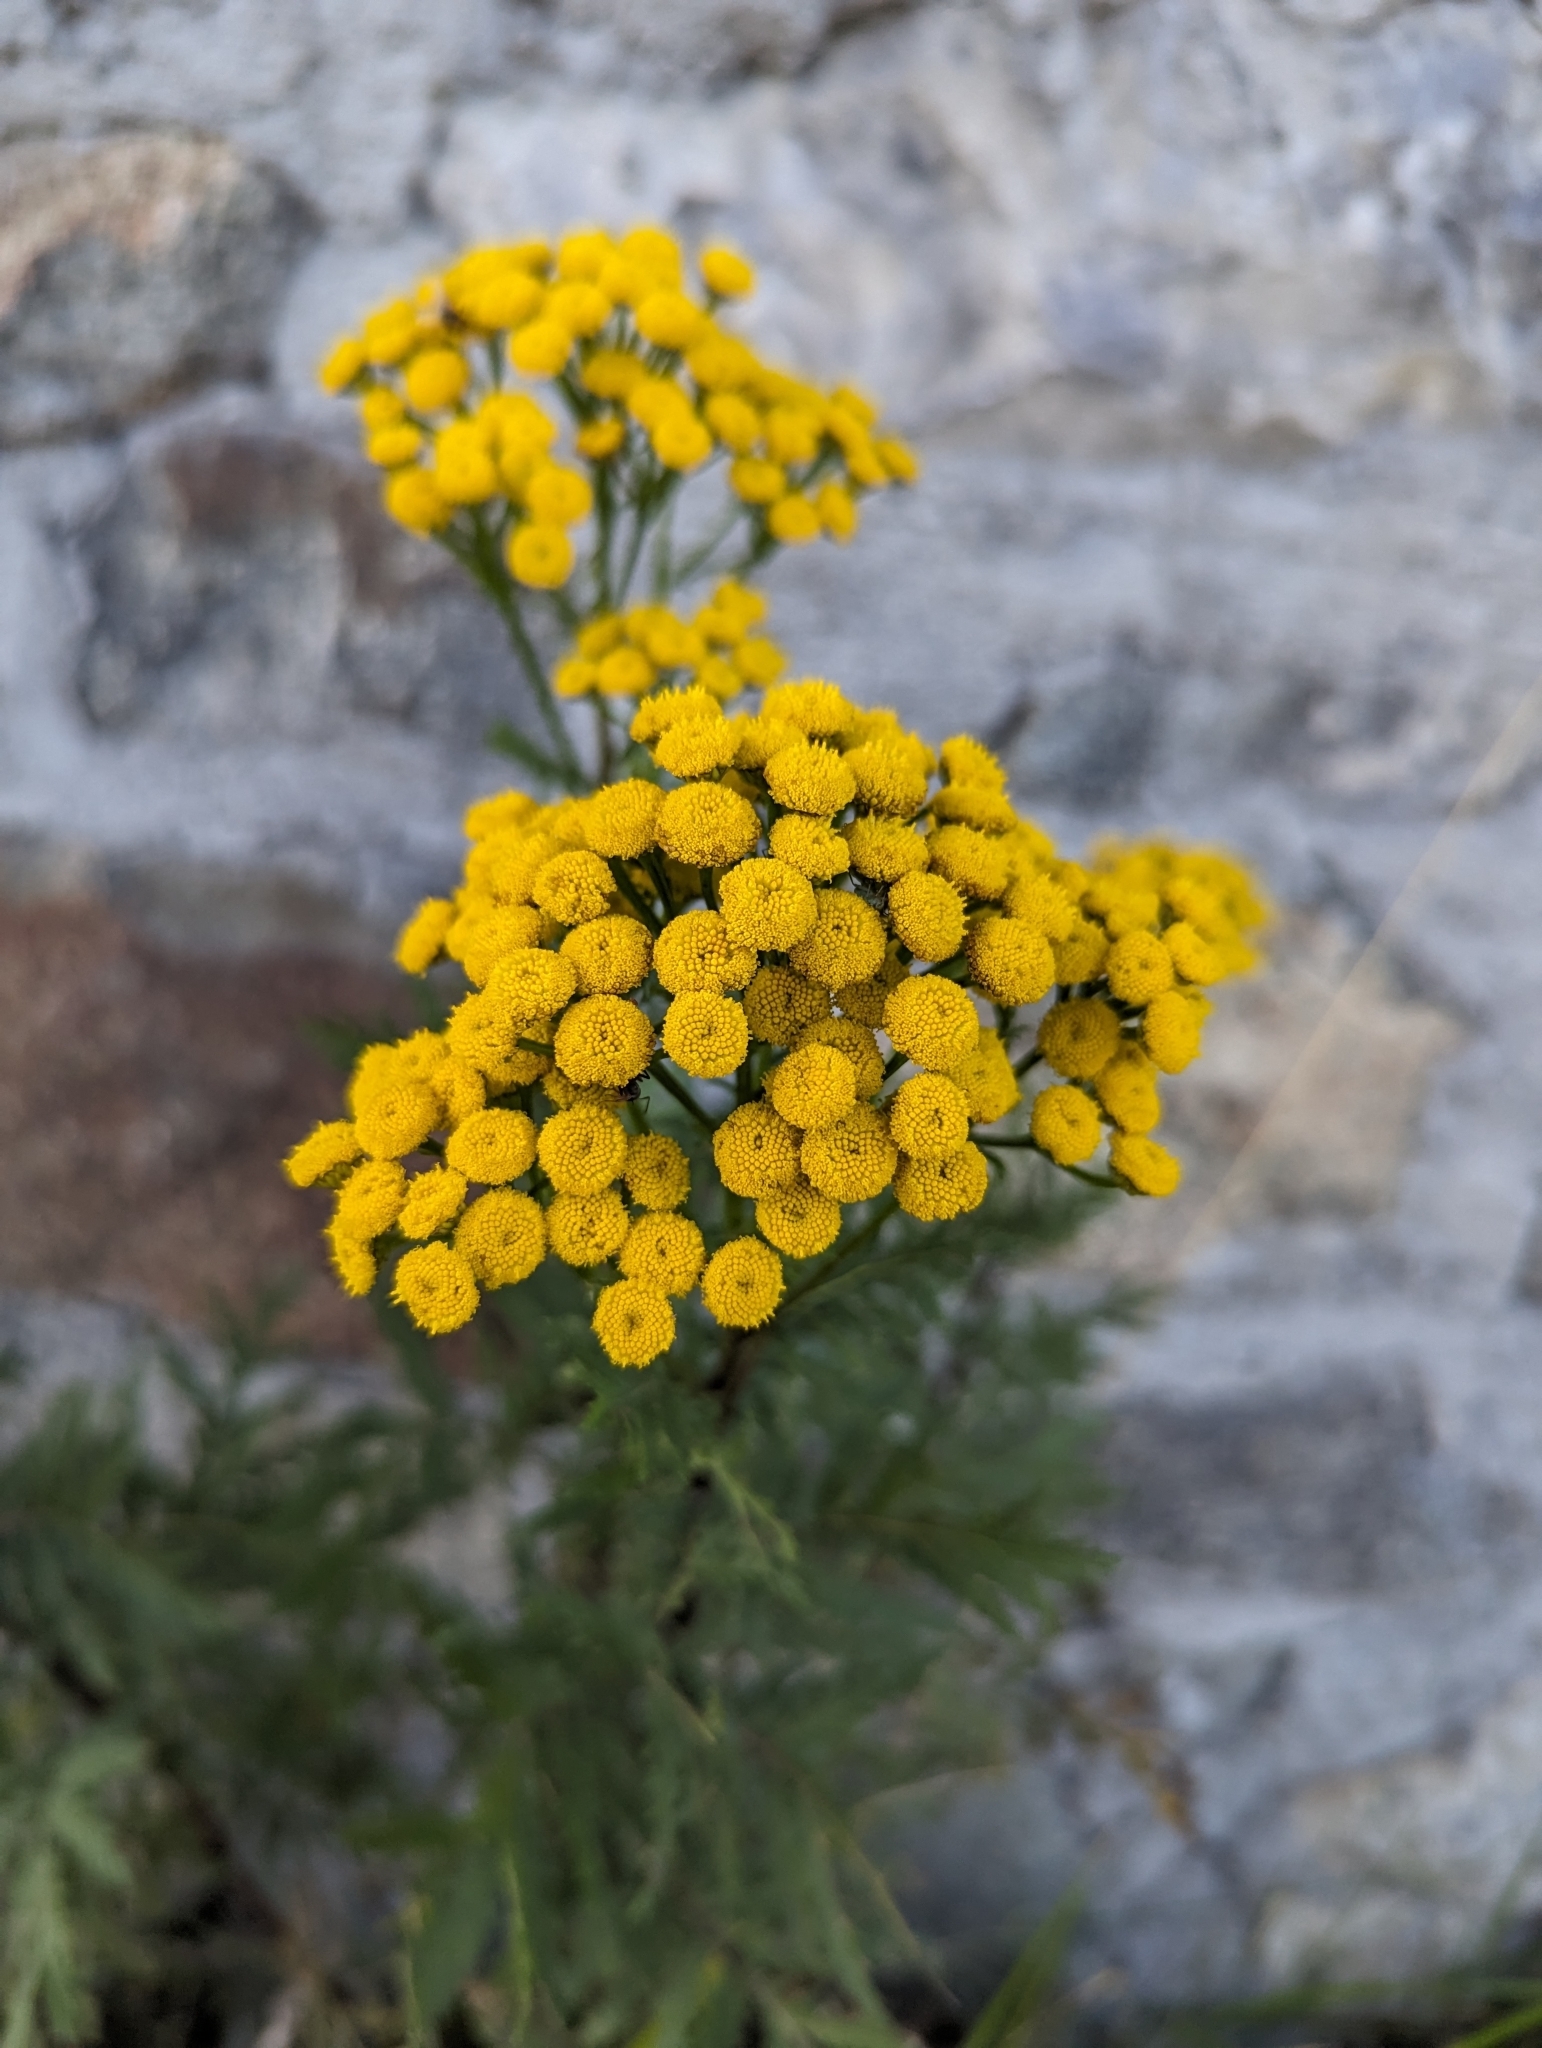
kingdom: Plantae
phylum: Tracheophyta
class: Magnoliopsida
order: Asterales
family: Asteraceae
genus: Tanacetum
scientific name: Tanacetum vulgare
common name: Common tansy
